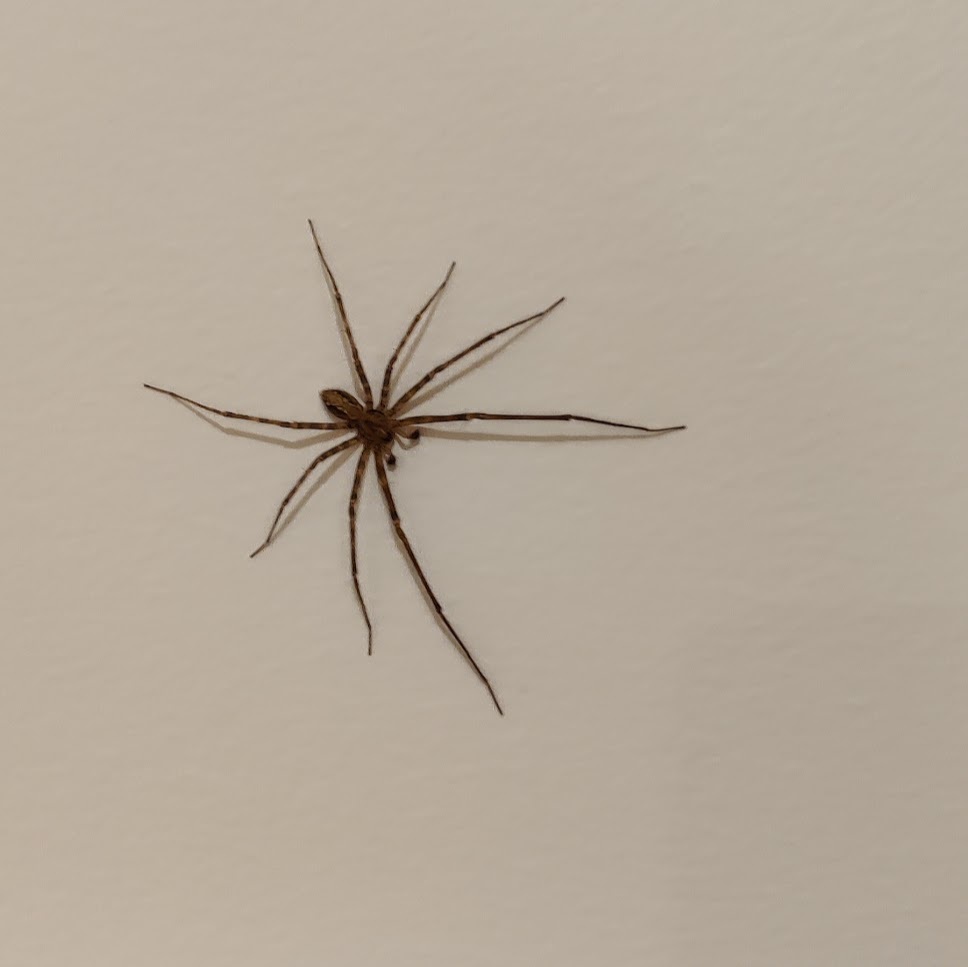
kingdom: Animalia
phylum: Arthropoda
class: Arachnida
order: Araneae
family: Stiphidiidae
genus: Stiphidion
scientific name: Stiphidion facetum
